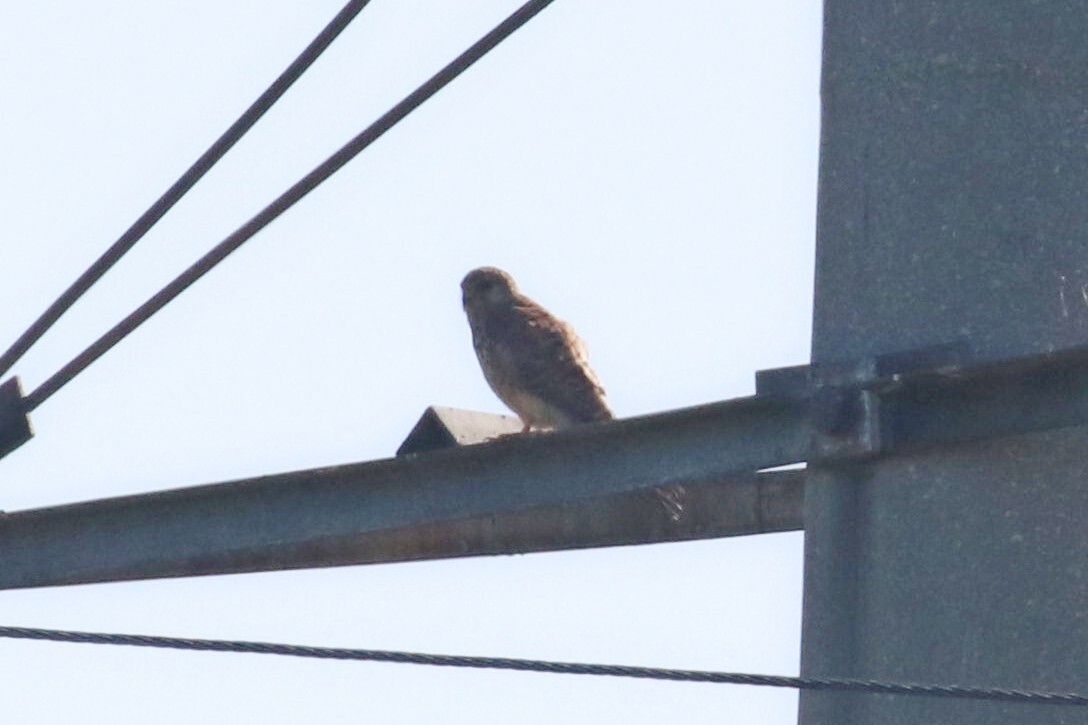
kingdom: Animalia
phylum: Chordata
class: Aves
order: Falconiformes
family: Falconidae
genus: Falco
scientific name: Falco tinnunculus
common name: Common kestrel
